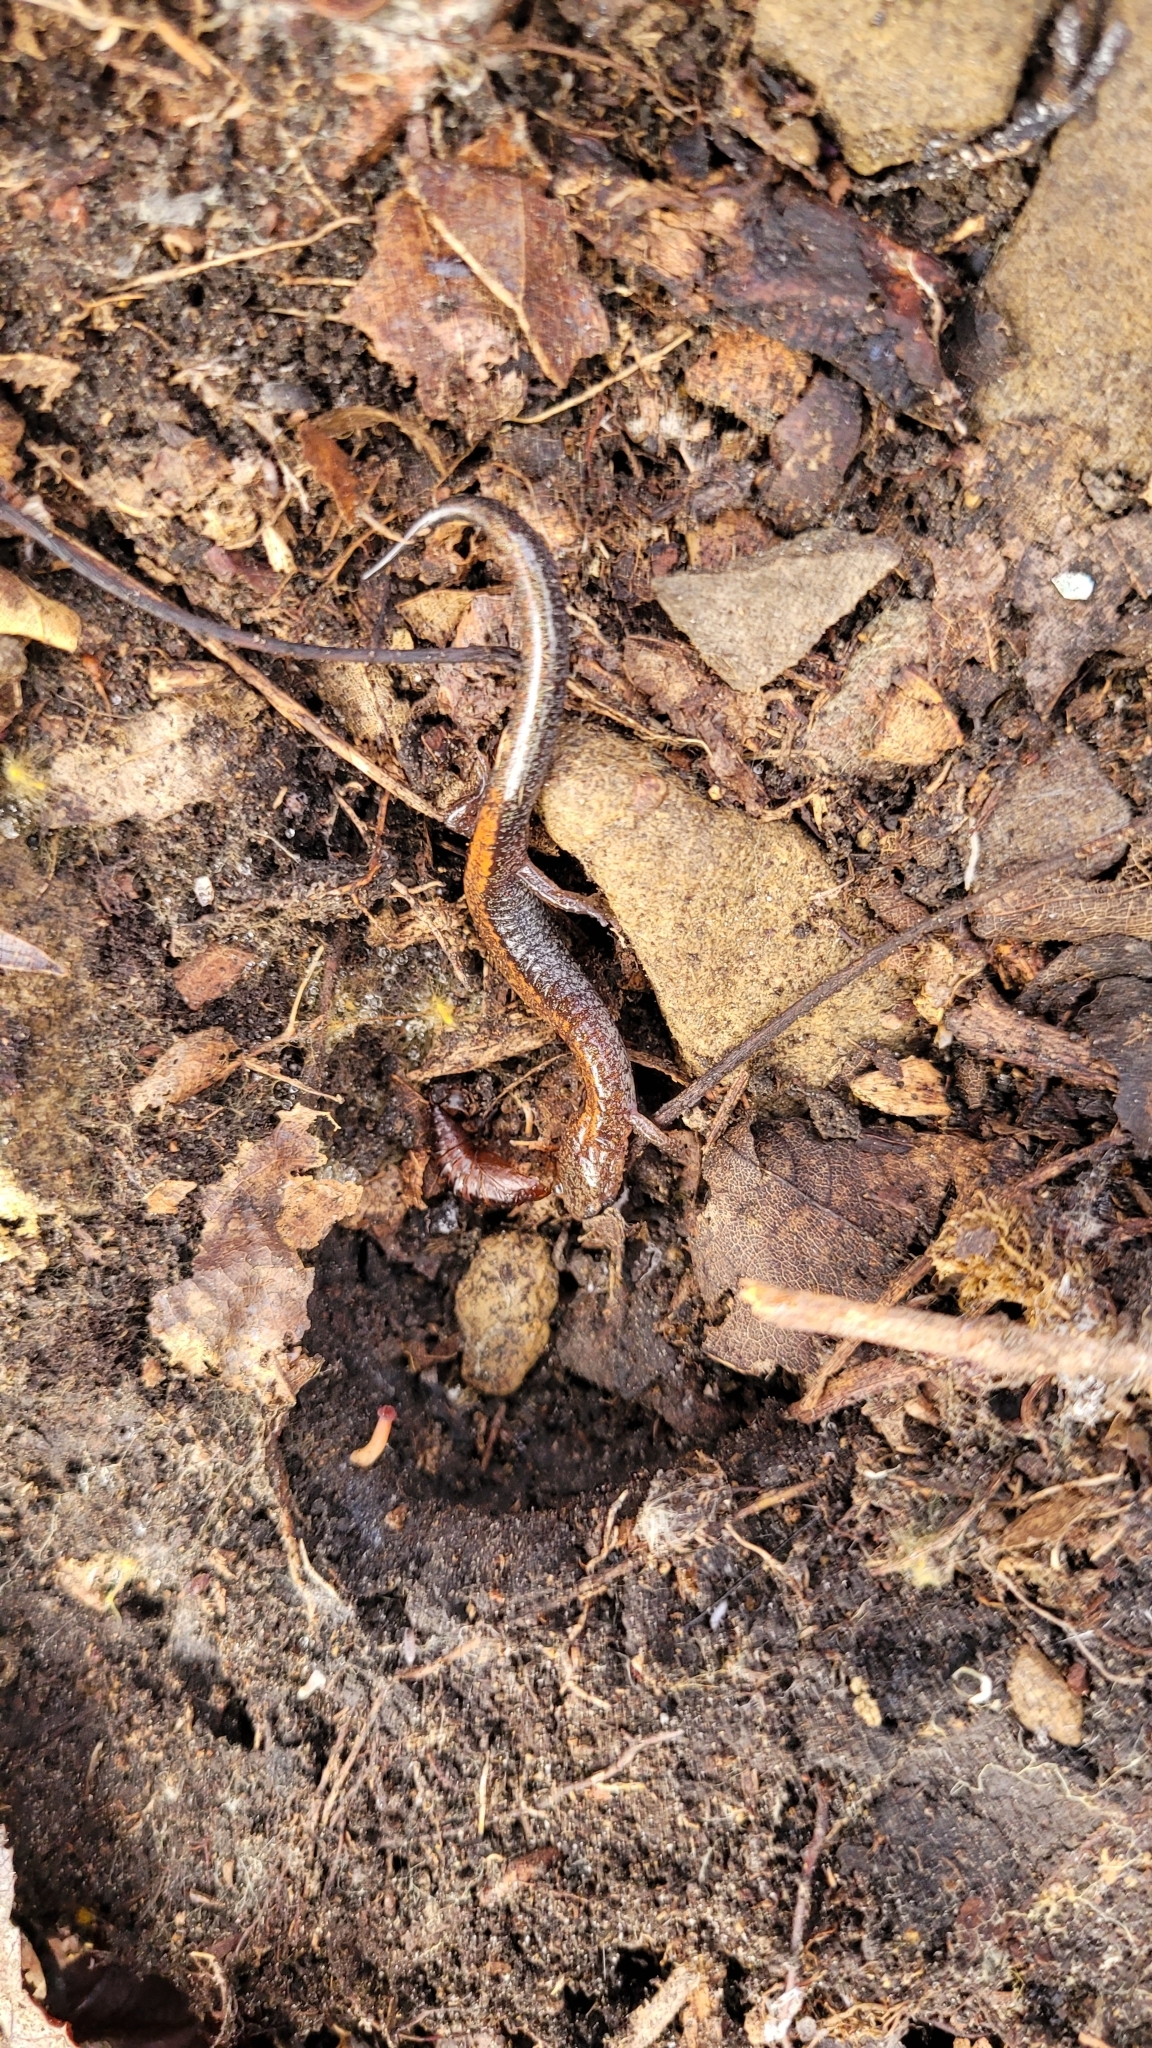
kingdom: Animalia
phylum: Chordata
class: Amphibia
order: Caudata
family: Plethodontidae
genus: Plethodon
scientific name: Plethodon cinereus
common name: Redback salamander
